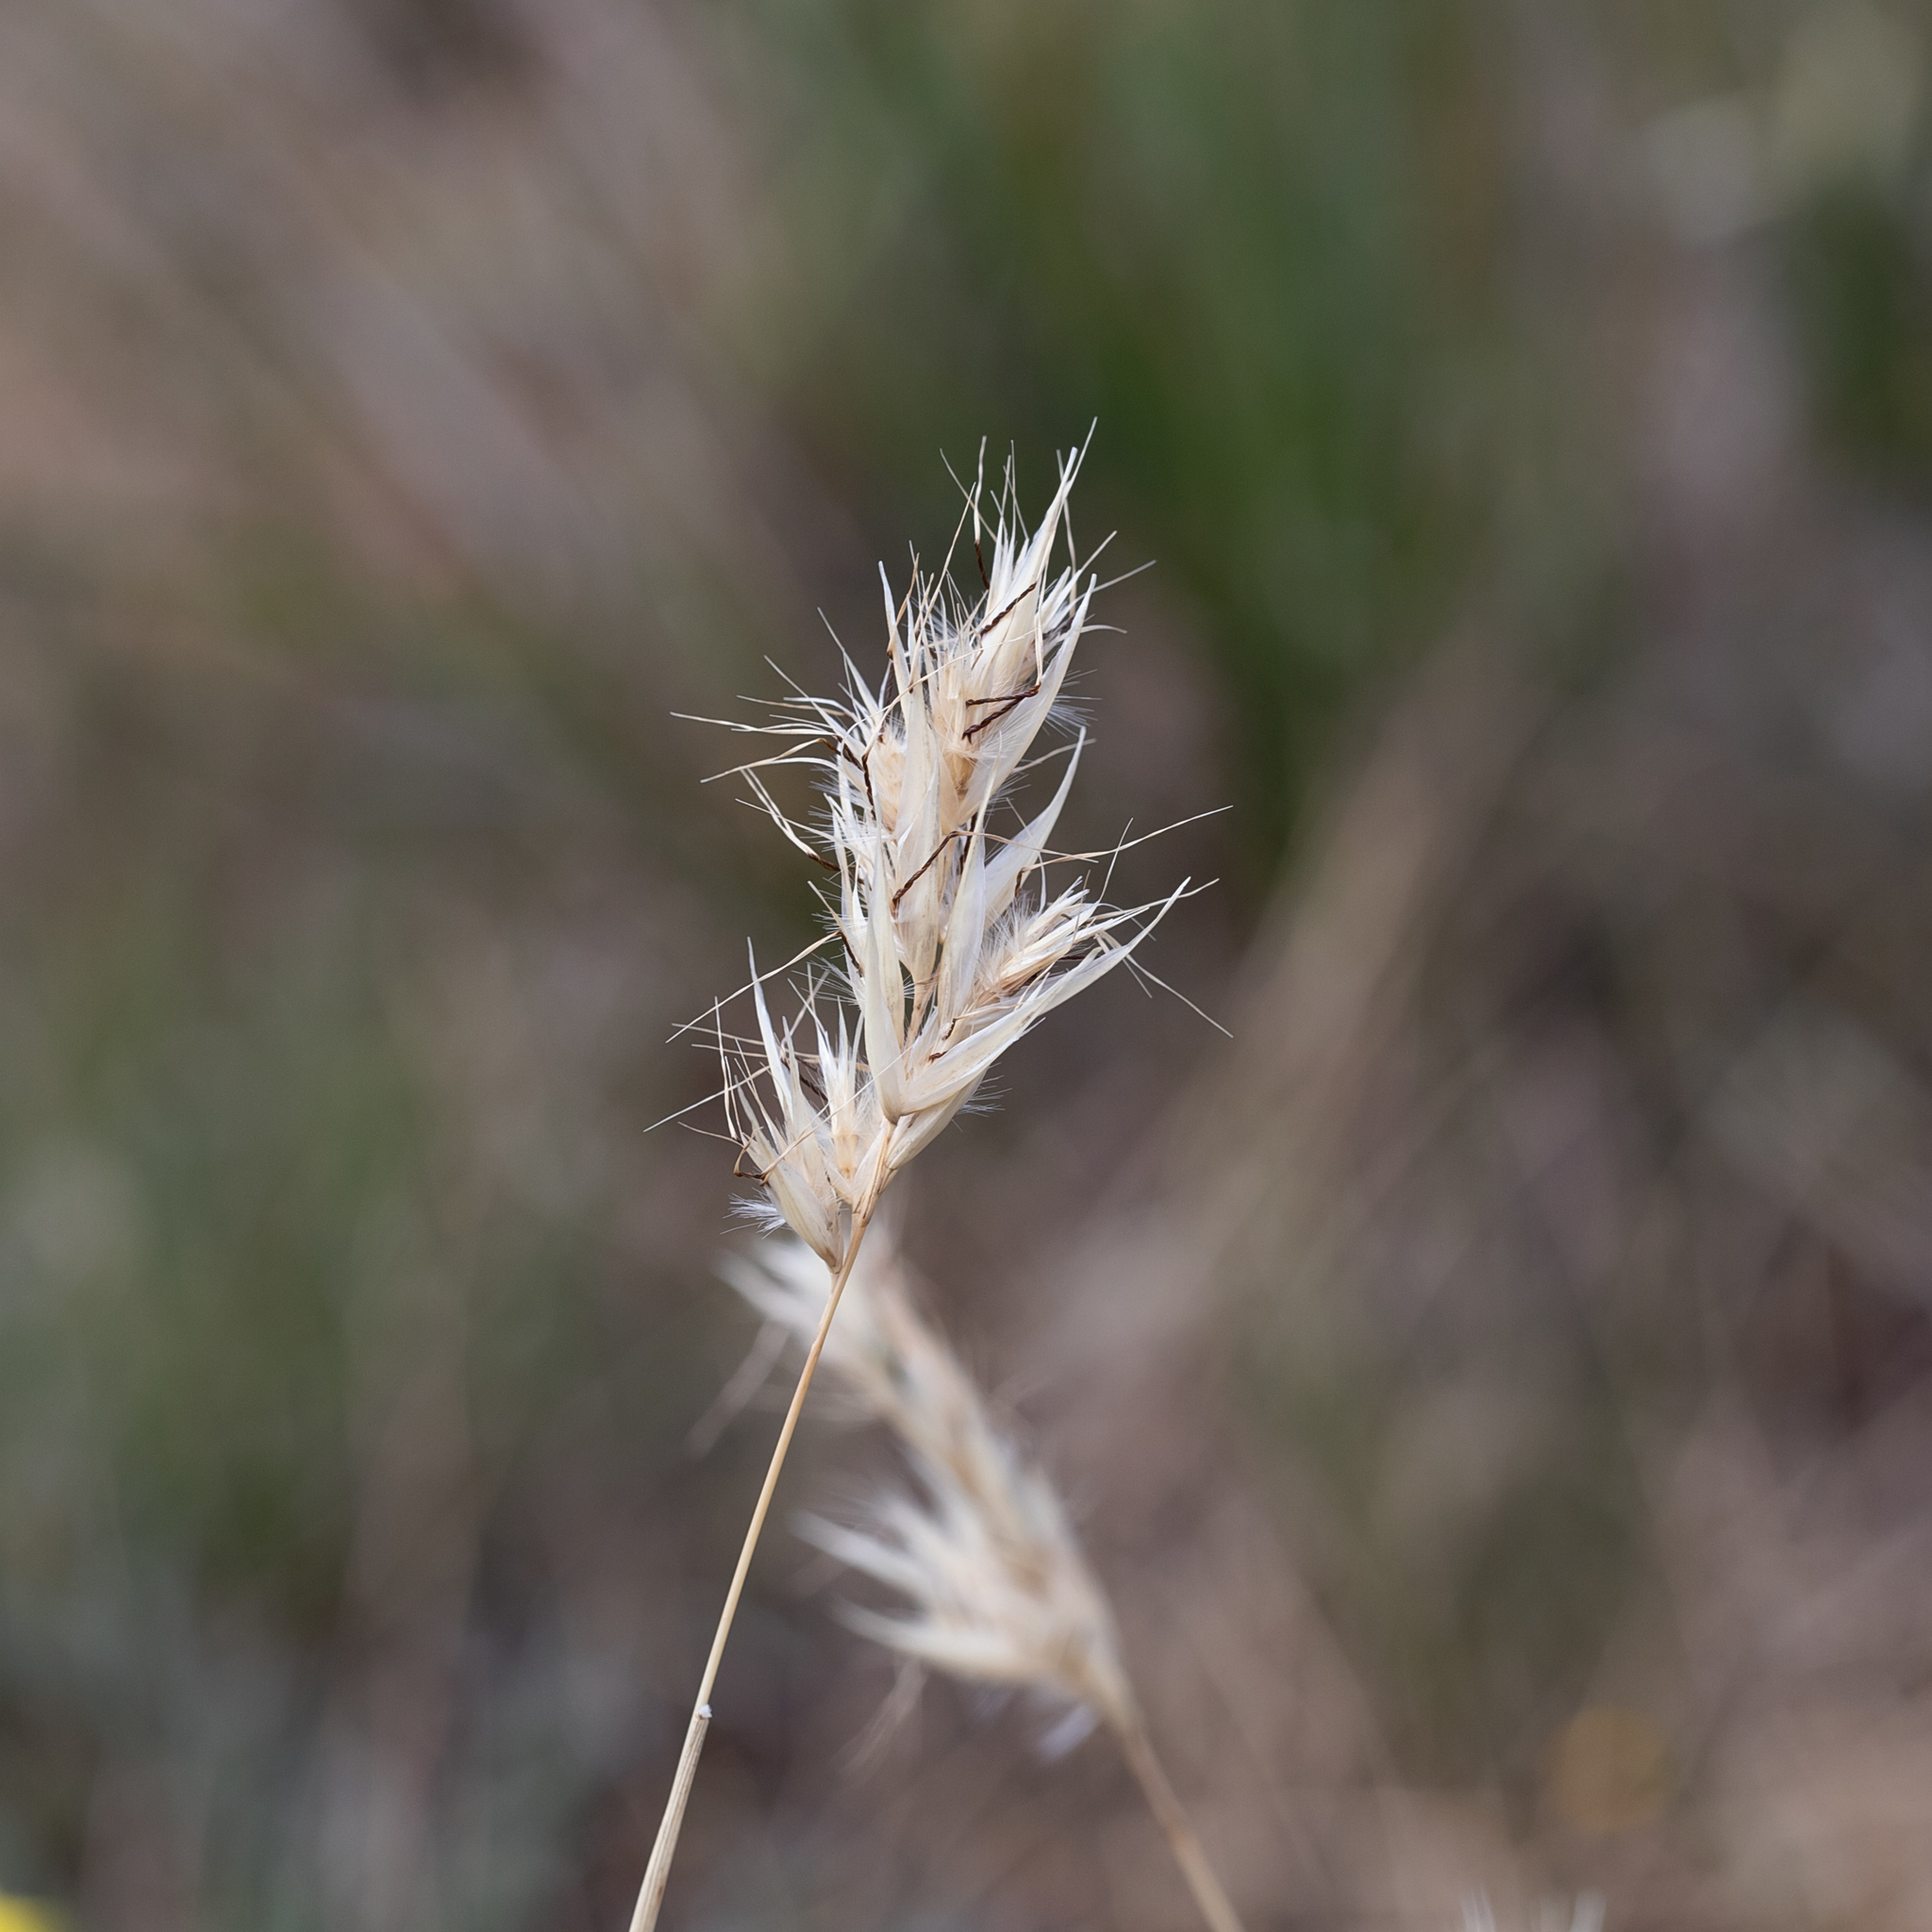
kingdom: Plantae
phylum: Tracheophyta
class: Liliopsida
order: Poales
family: Poaceae
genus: Rytidosperma
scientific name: Rytidosperma caespitosum
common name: Tufted wallaby grass
